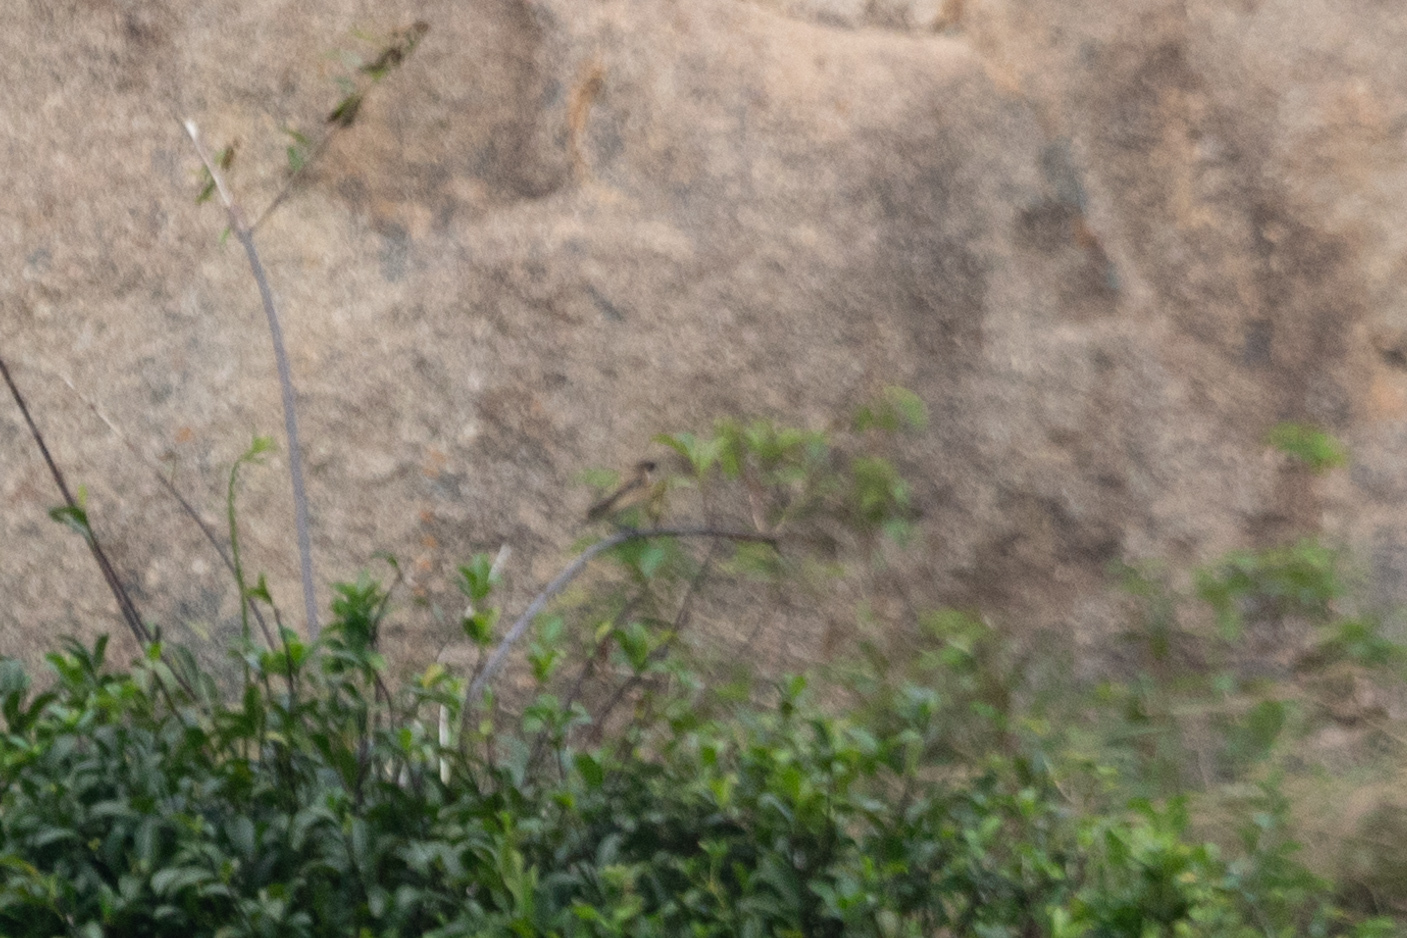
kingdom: Animalia
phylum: Chordata
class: Aves
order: Passeriformes
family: Muscicapidae
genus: Saxicola
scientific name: Saxicola stejnegeri
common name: Stejneger's stonechat
